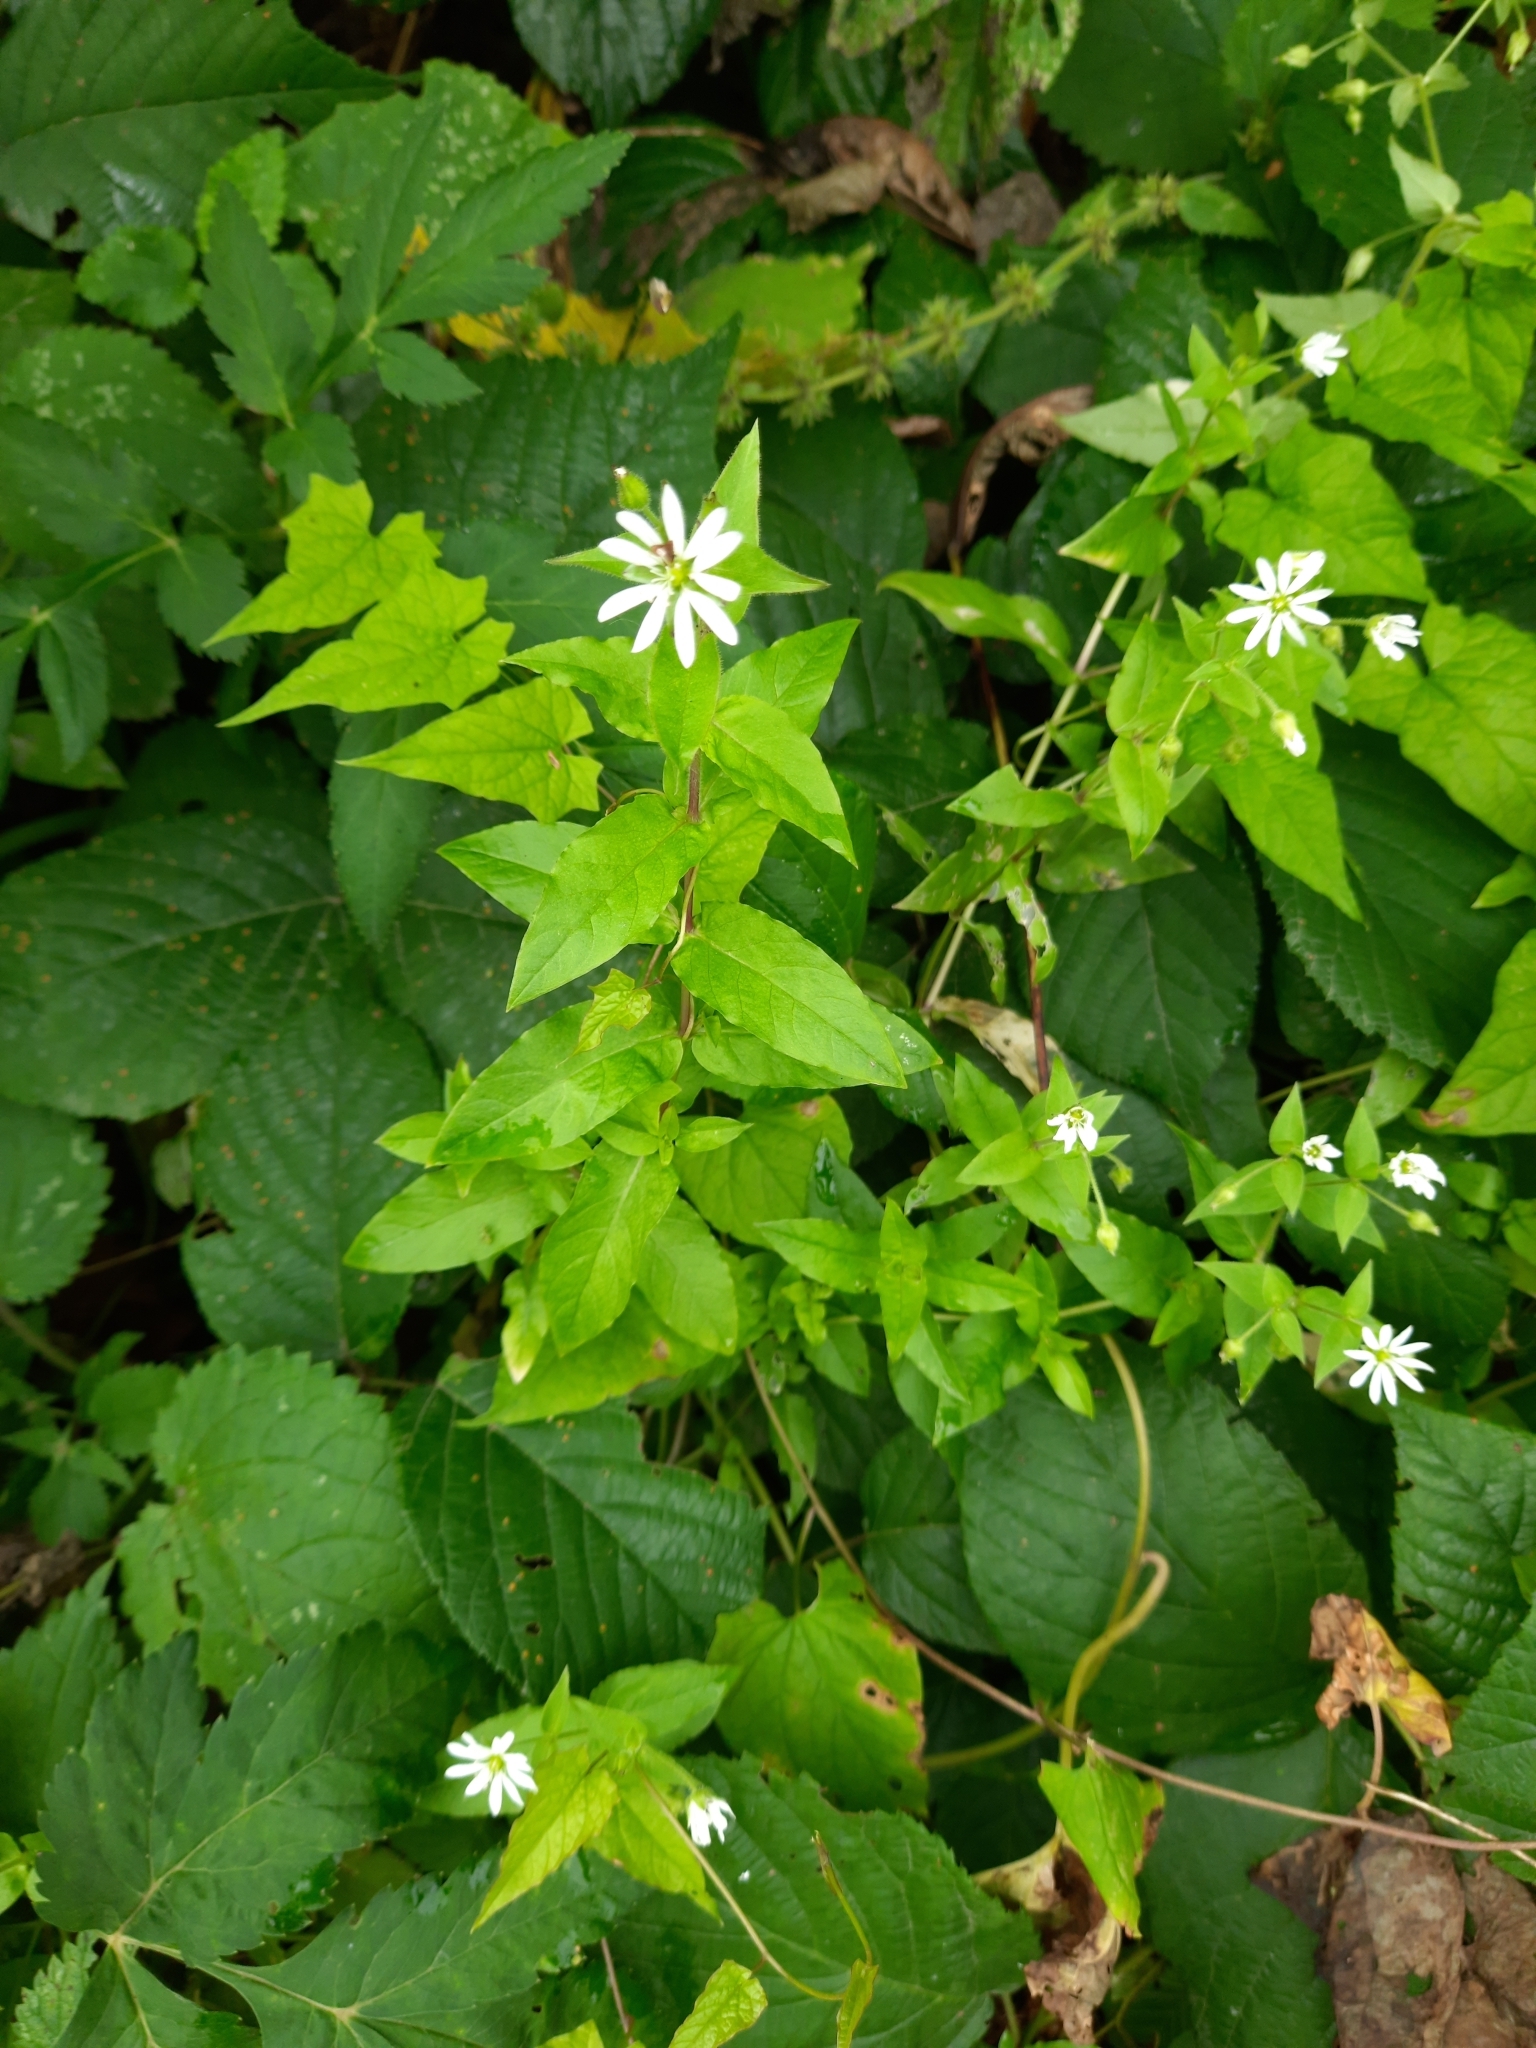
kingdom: Plantae
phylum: Tracheophyta
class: Magnoliopsida
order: Caryophyllales
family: Caryophyllaceae
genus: Stellaria
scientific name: Stellaria aquatica
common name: Water chickweed
